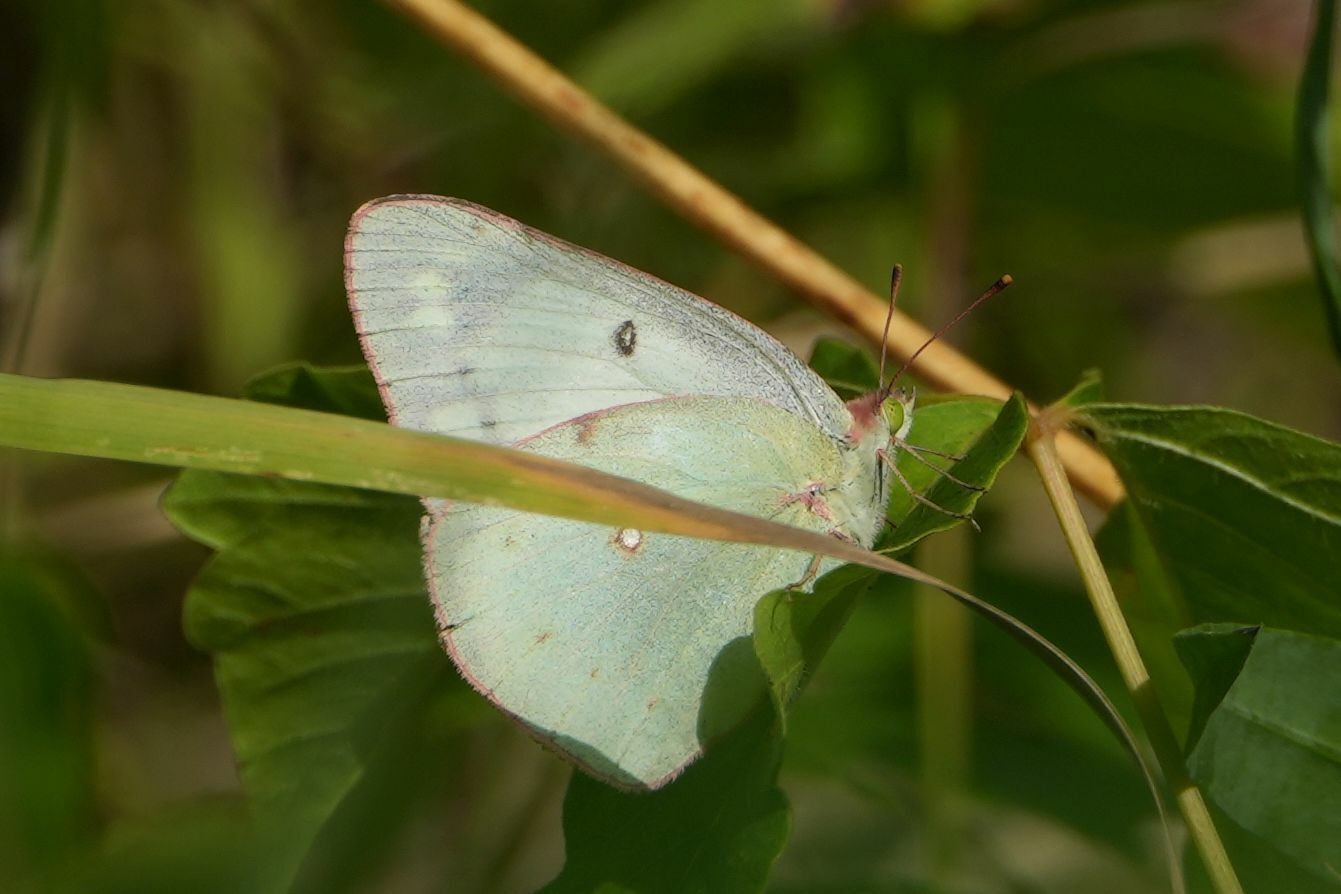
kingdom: Animalia
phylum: Arthropoda
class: Insecta
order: Lepidoptera
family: Pieridae
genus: Colias
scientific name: Colias philodice
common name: Clouded sulphur
